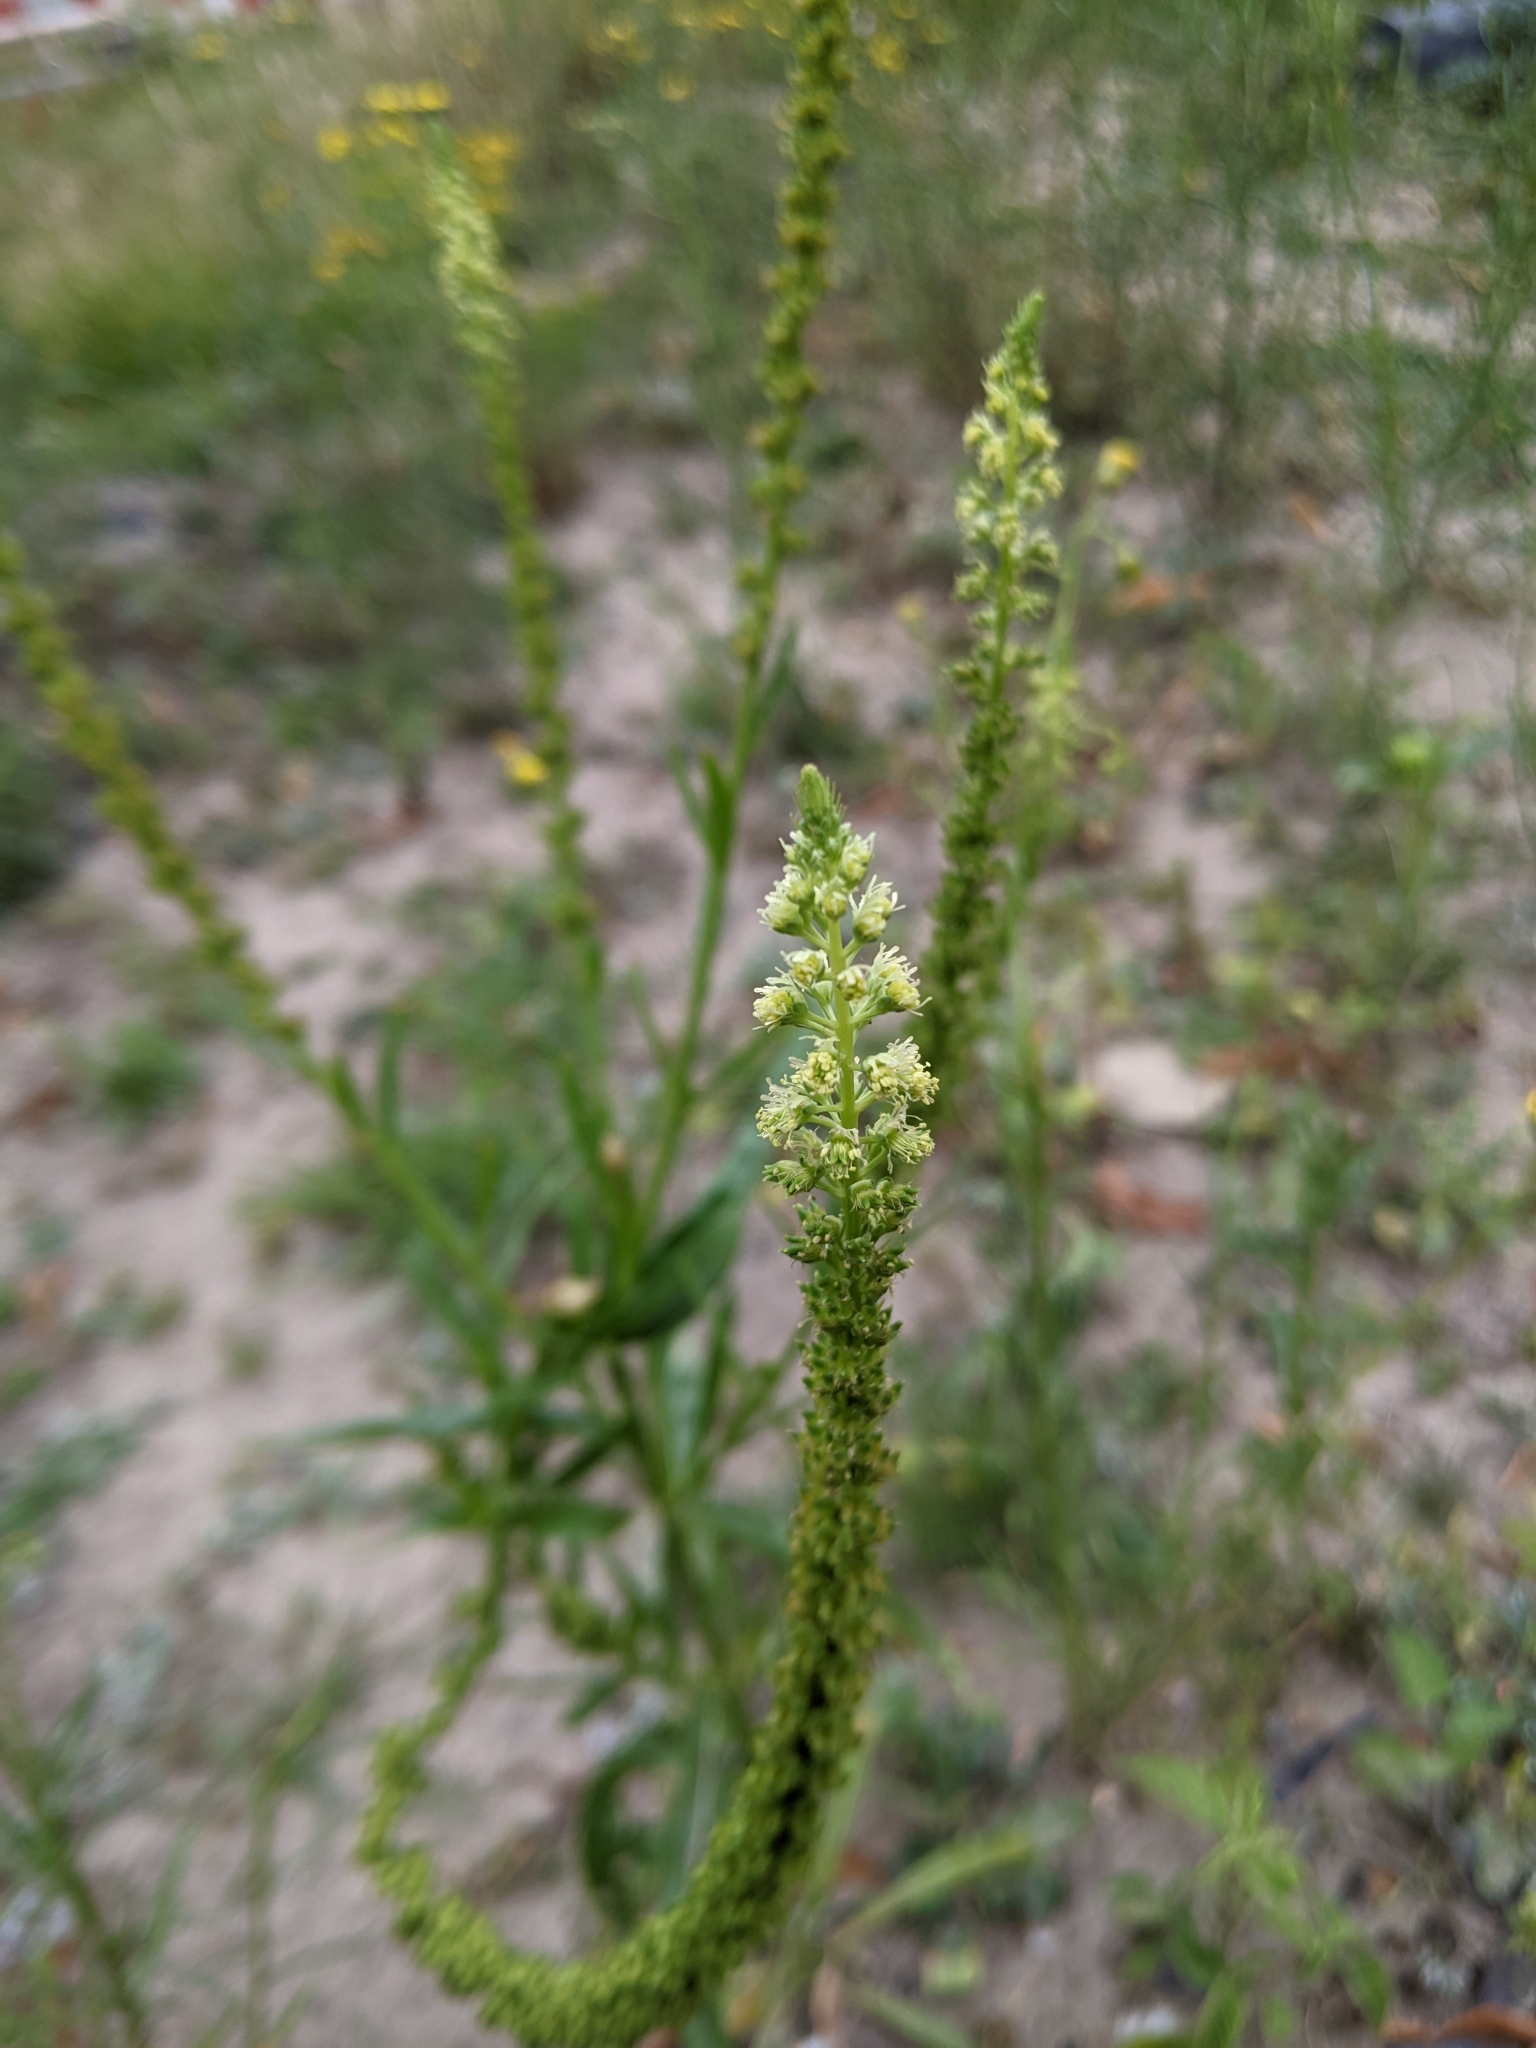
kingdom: Plantae
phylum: Tracheophyta
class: Magnoliopsida
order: Brassicales
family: Resedaceae
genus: Reseda
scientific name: Reseda luteola
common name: Weld
